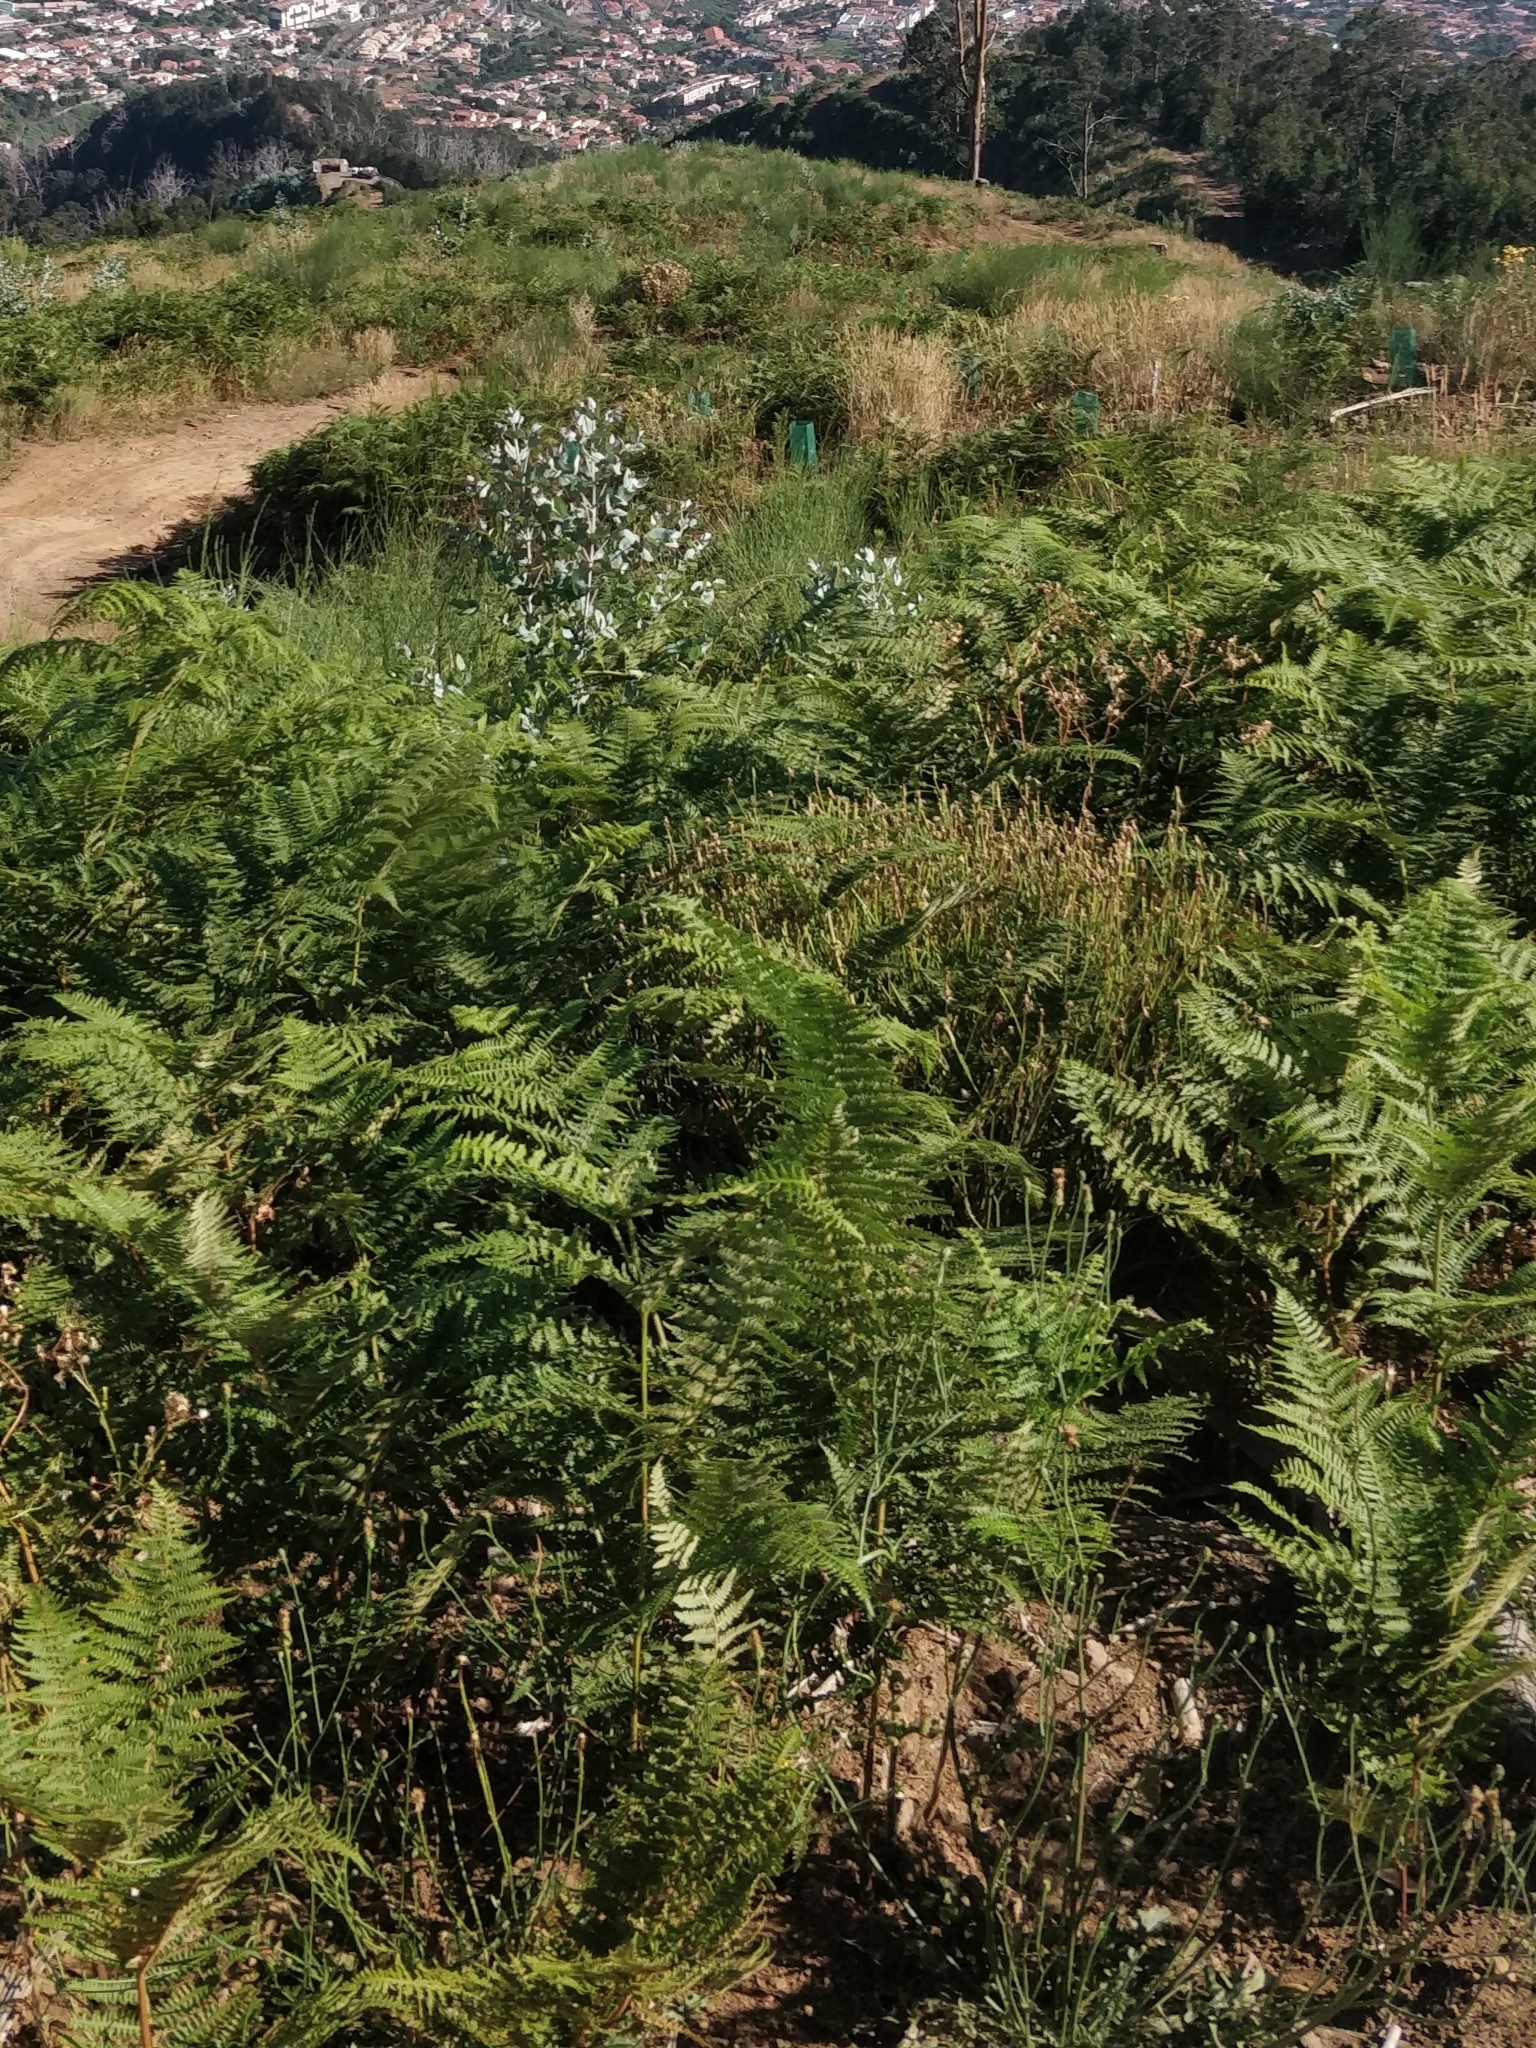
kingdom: Plantae
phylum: Tracheophyta
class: Polypodiopsida
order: Polypodiales
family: Dennstaedtiaceae
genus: Pteridium
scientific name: Pteridium aquilinum
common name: Bracken
